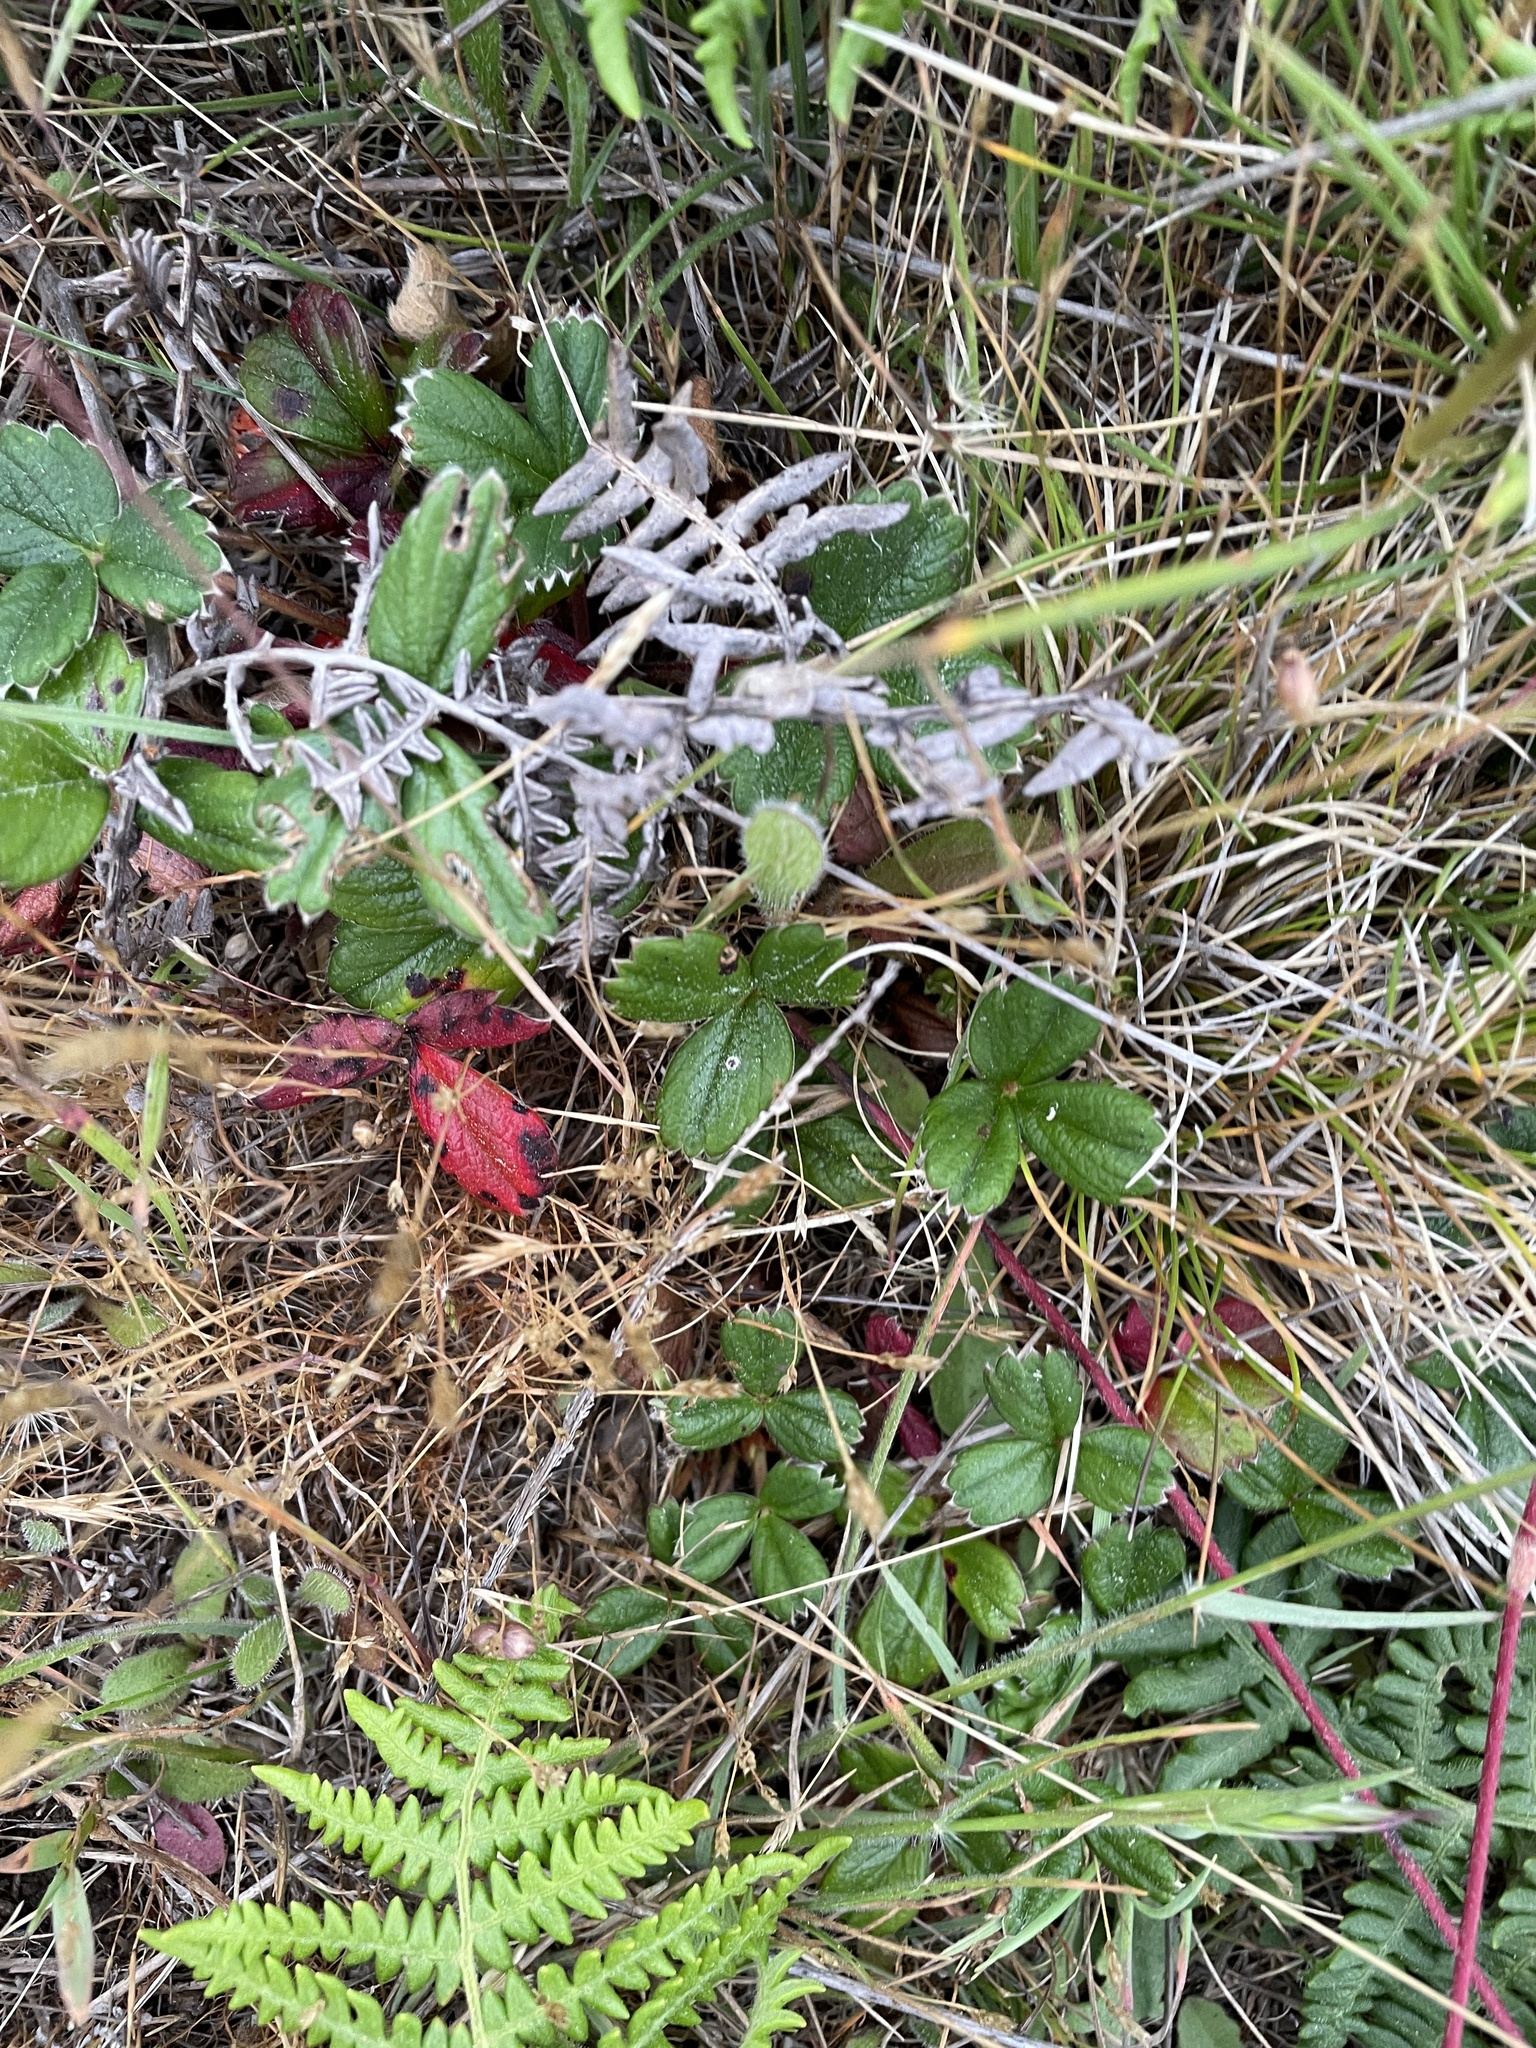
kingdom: Plantae
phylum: Tracheophyta
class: Magnoliopsida
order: Rosales
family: Rosaceae
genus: Fragaria
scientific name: Fragaria chiloensis
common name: Beach strawberry
